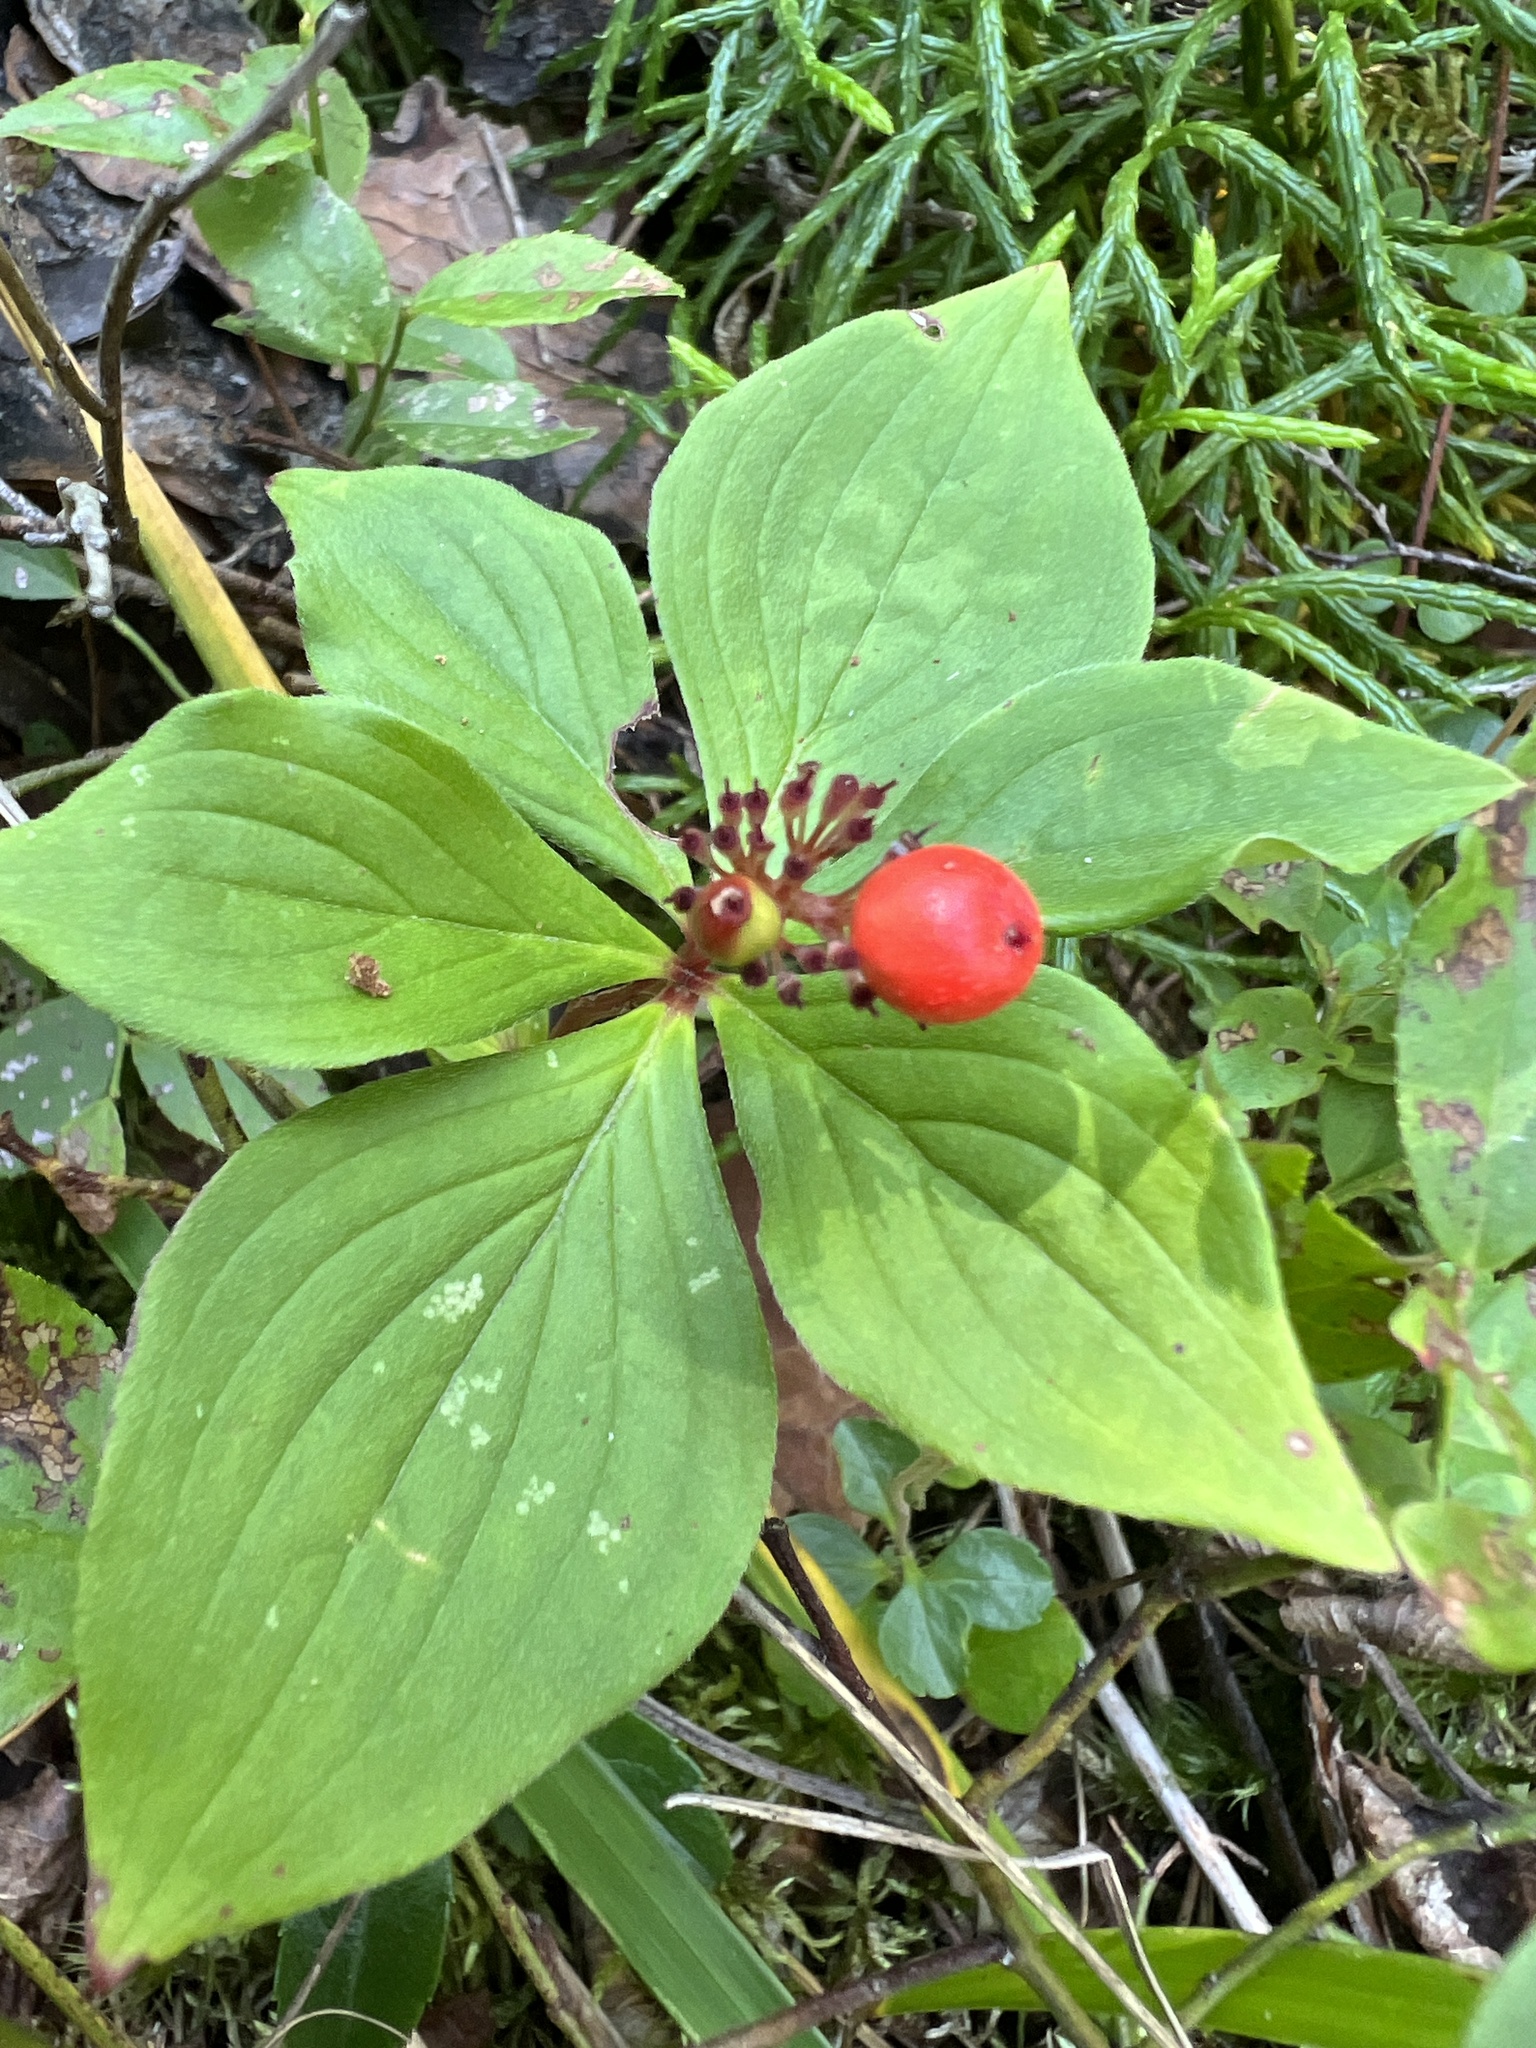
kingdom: Plantae
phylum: Tracheophyta
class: Magnoliopsida
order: Cornales
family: Cornaceae
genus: Cornus
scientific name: Cornus canadensis
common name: Creeping dogwood
